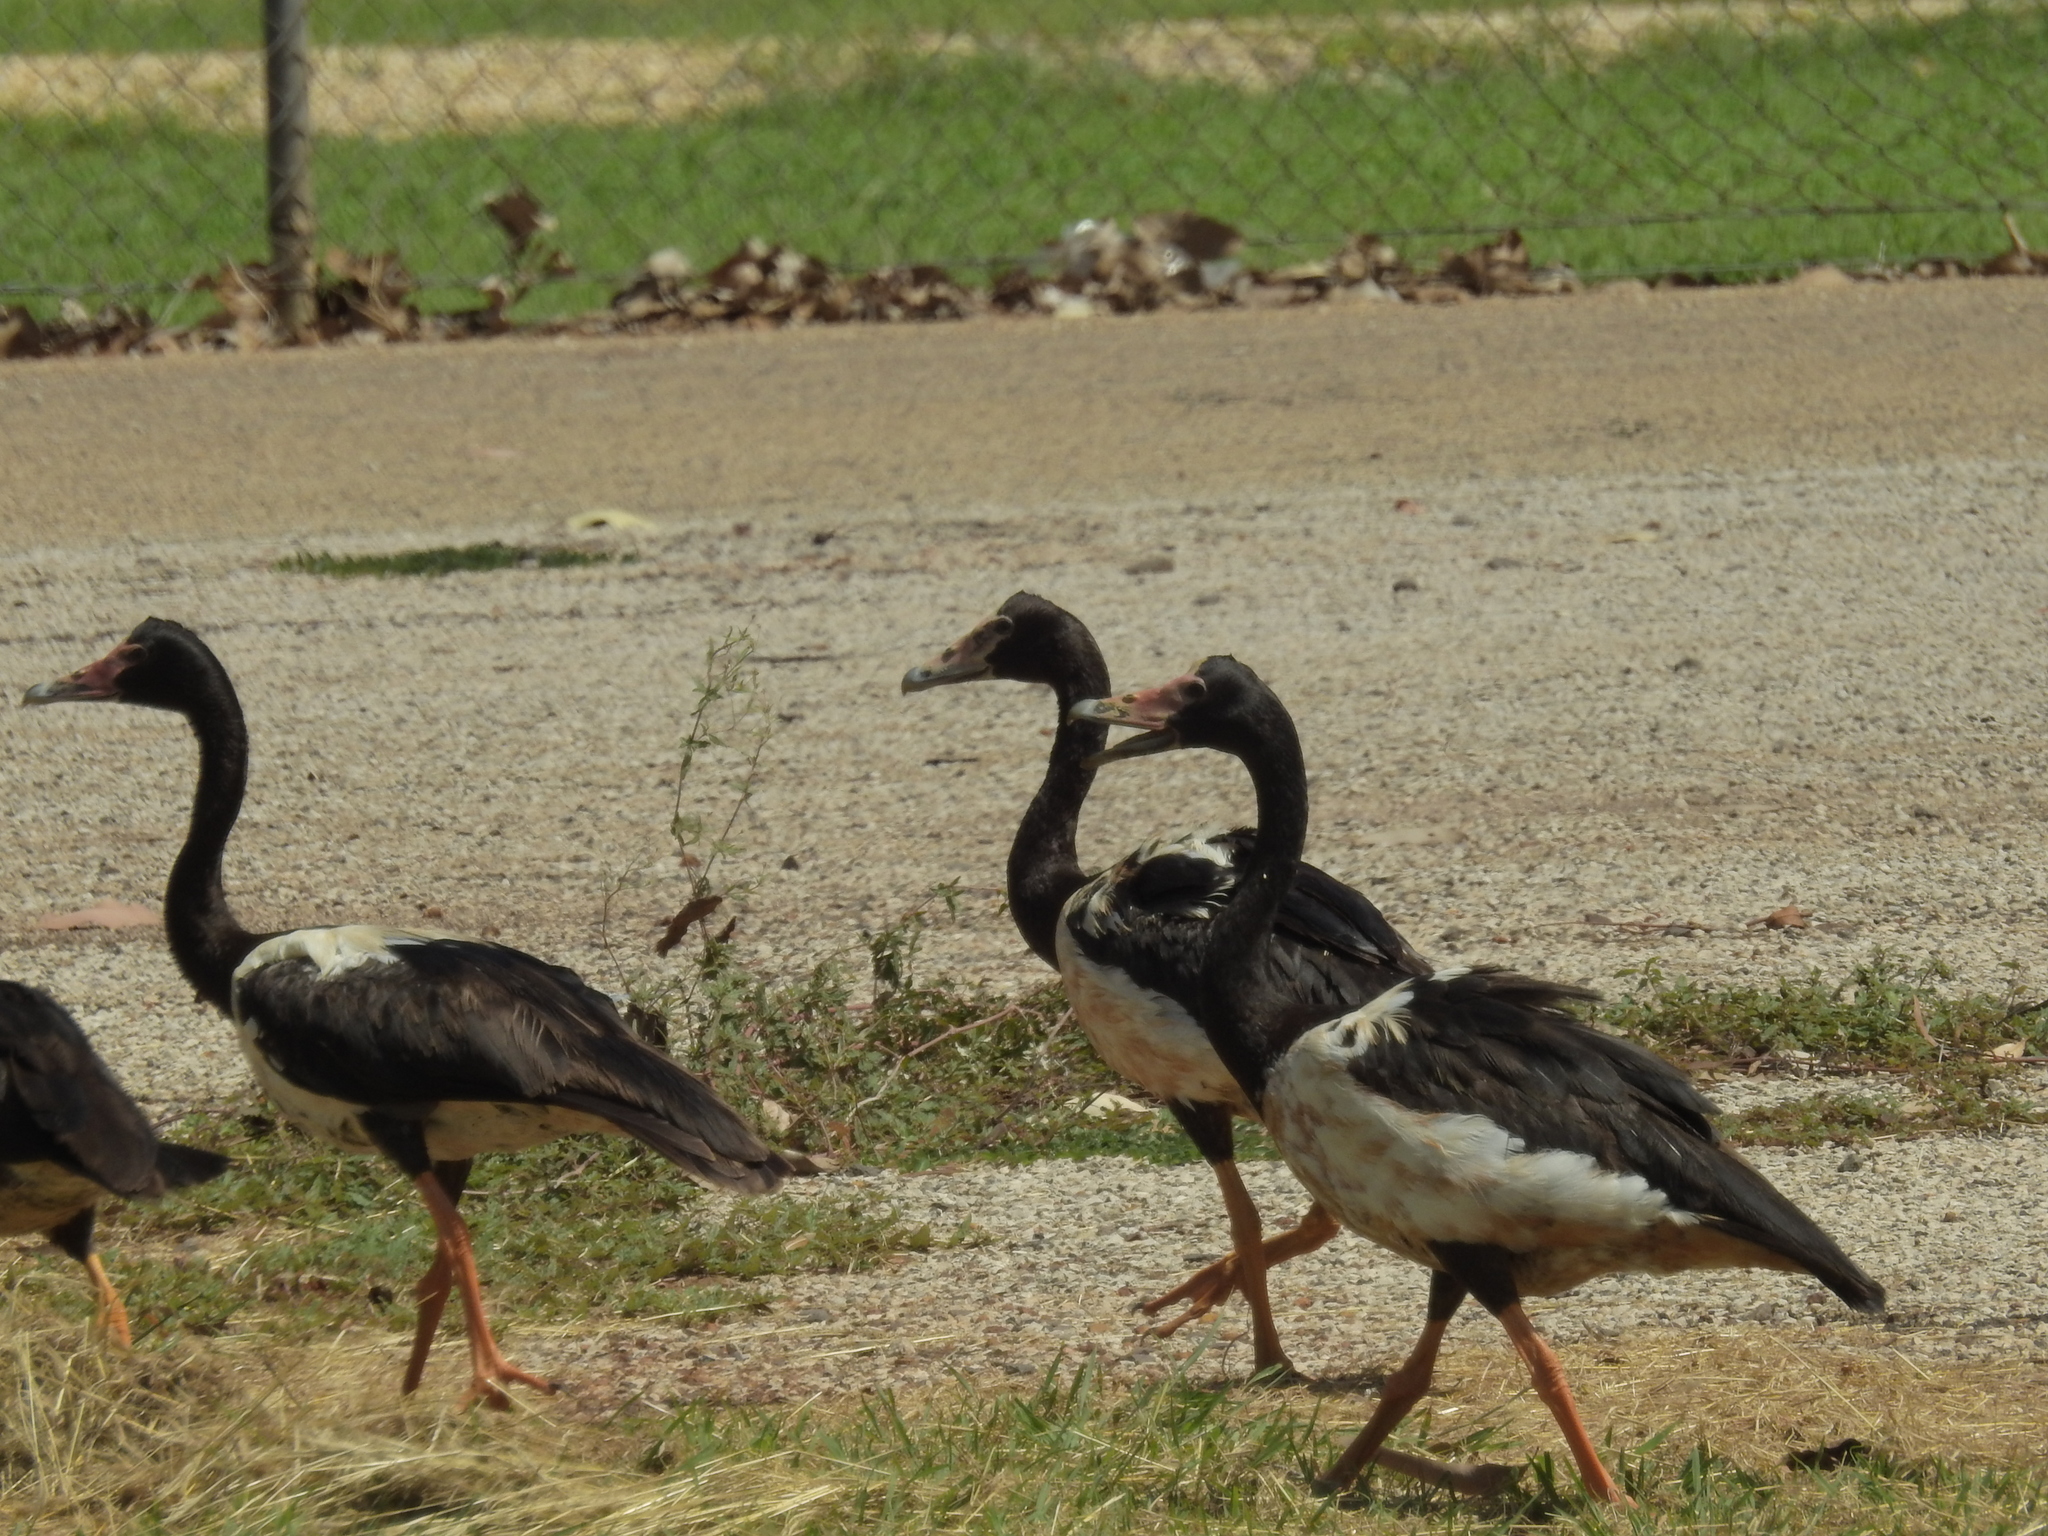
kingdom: Animalia
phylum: Chordata
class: Aves
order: Anseriformes
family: Anseranatidae
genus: Anseranas
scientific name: Anseranas semipalmata
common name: Magpie goose
